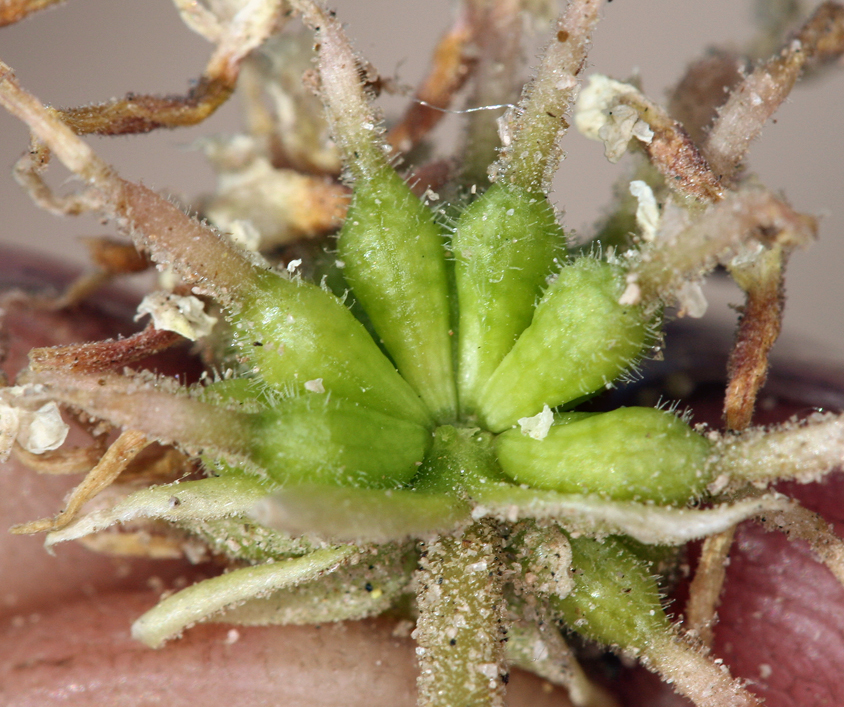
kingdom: Plantae
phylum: Tracheophyta
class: Magnoliopsida
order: Caryophyllales
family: Nyctaginaceae
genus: Abronia
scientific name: Abronia turbinata
